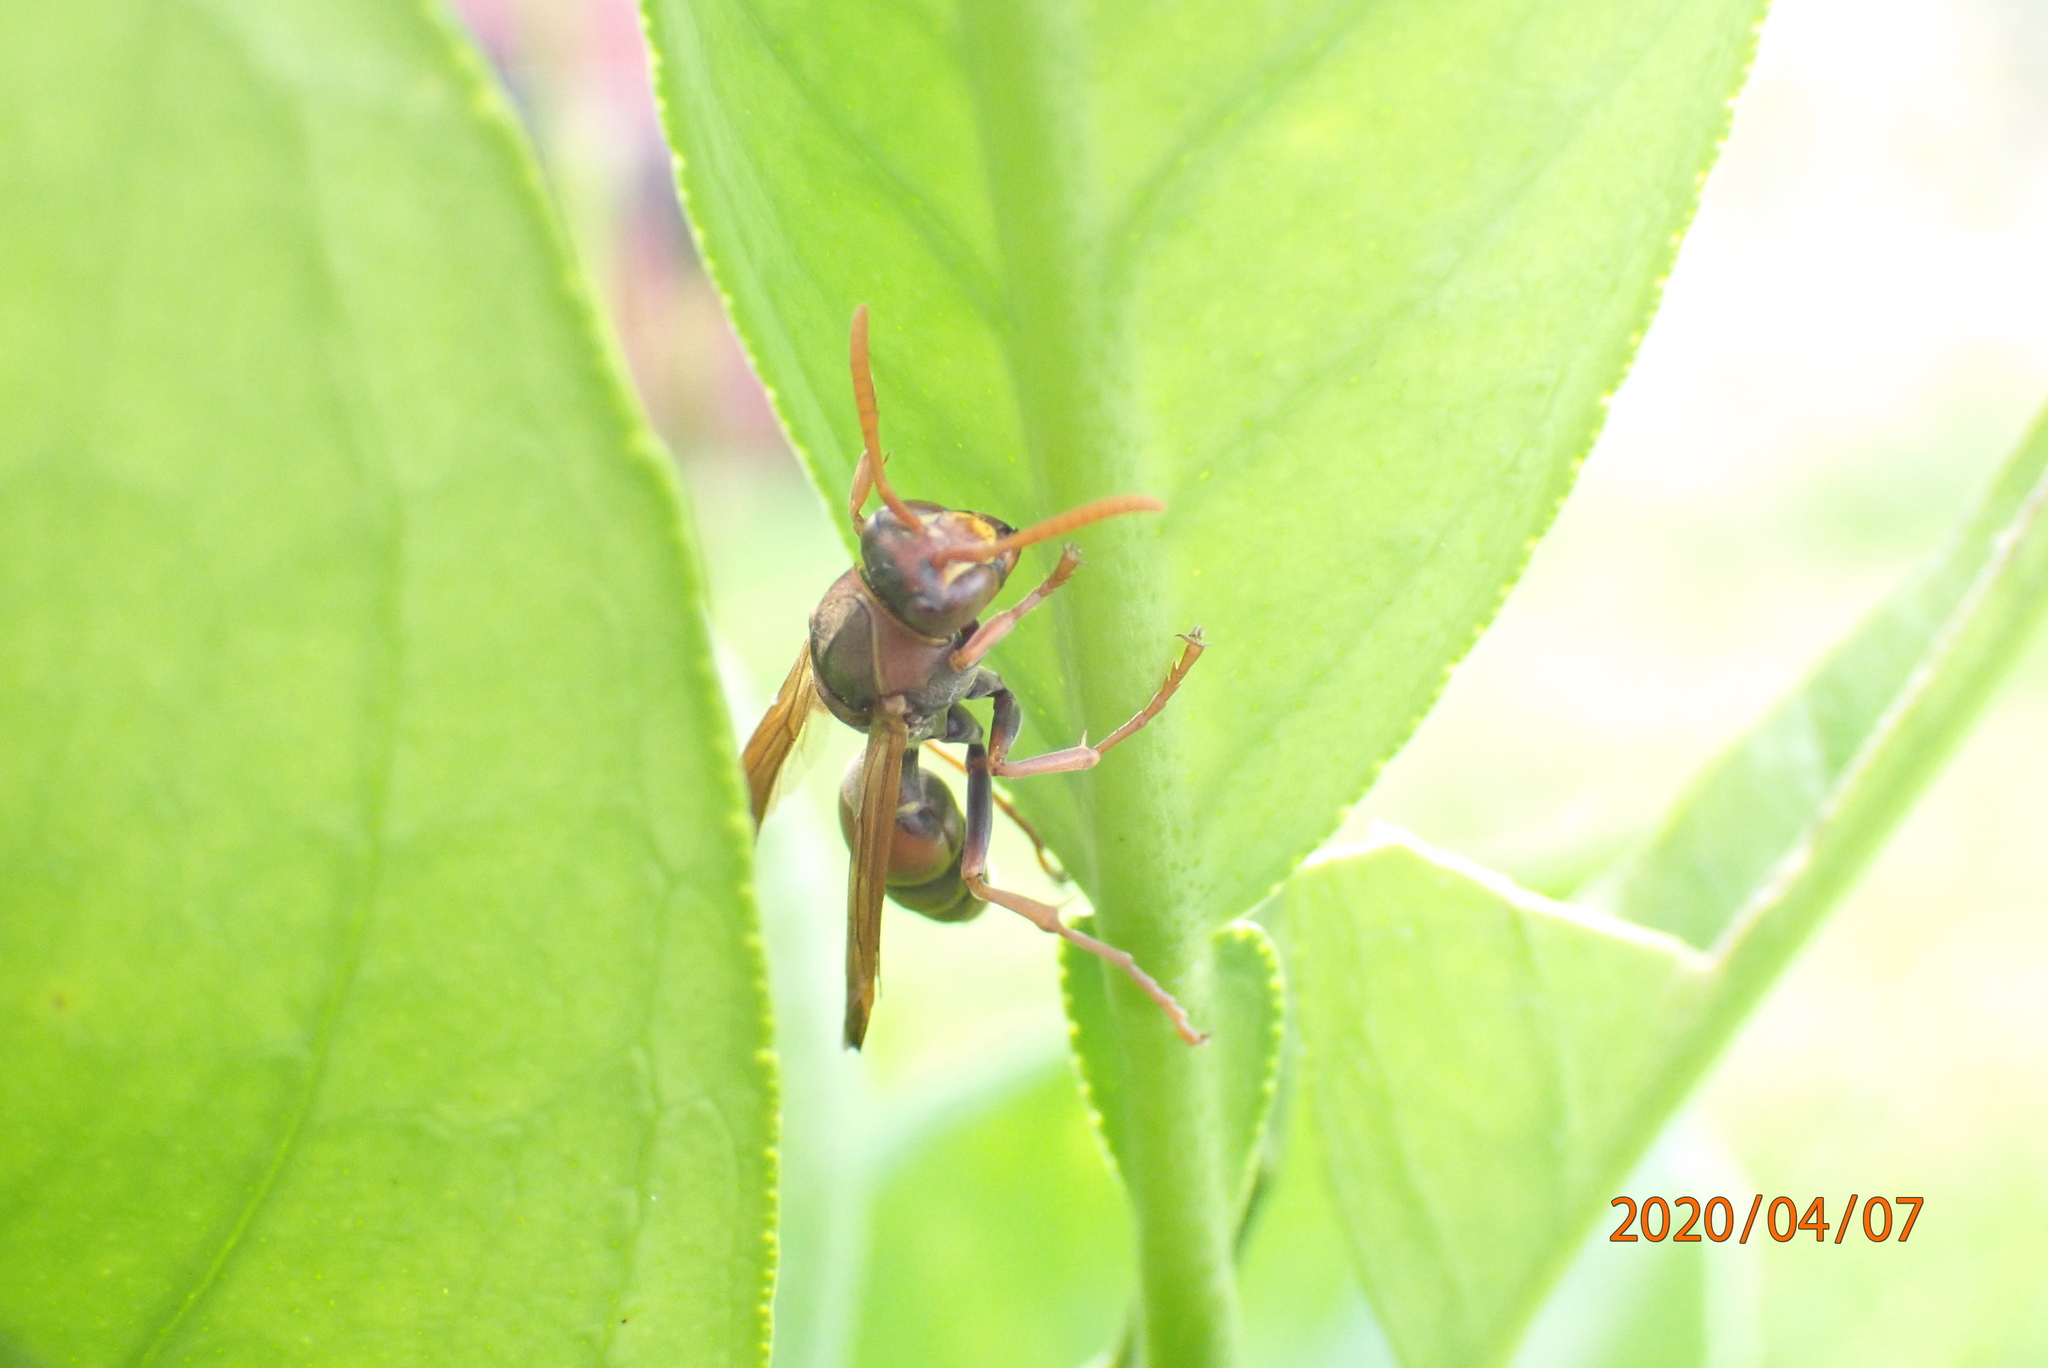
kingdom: Animalia
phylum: Arthropoda
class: Insecta
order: Hymenoptera
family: Eumenidae
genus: Polistes
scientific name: Polistes humilis
